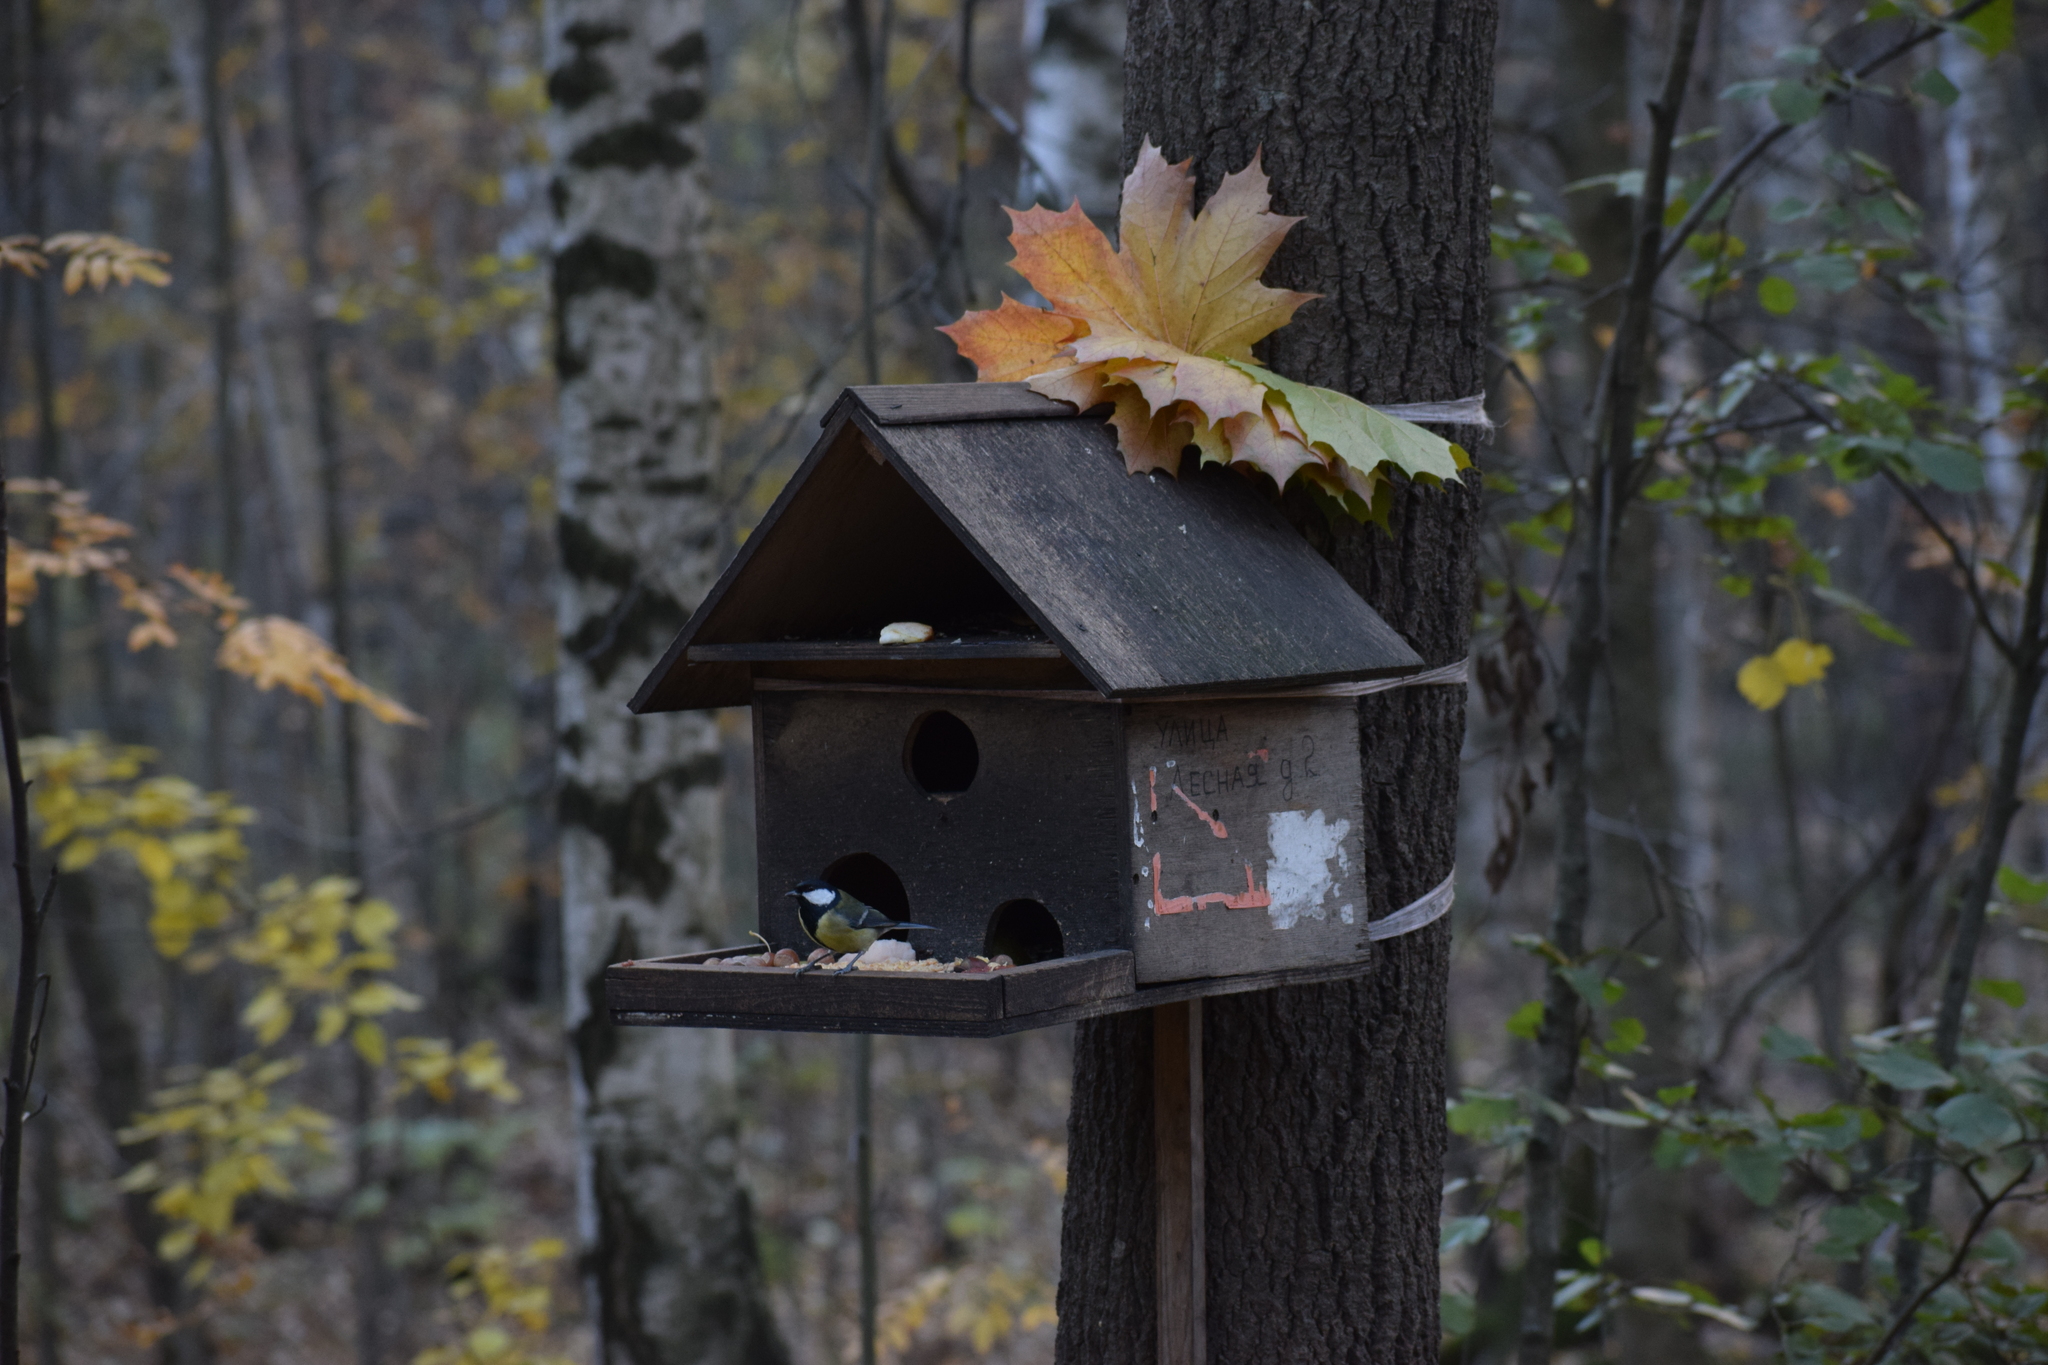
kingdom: Animalia
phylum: Chordata
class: Aves
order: Passeriformes
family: Paridae
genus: Parus
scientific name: Parus major
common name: Great tit
